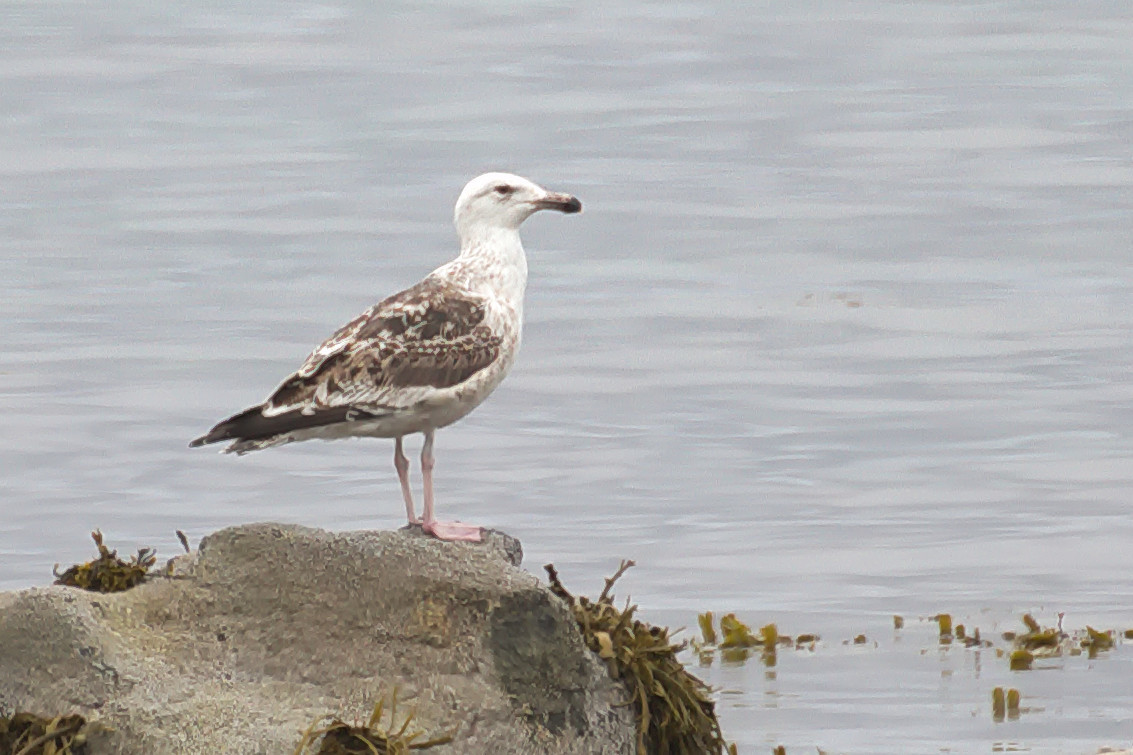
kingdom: Animalia
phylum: Chordata
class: Aves
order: Charadriiformes
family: Laridae
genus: Larus
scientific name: Larus marinus
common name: Great black-backed gull
